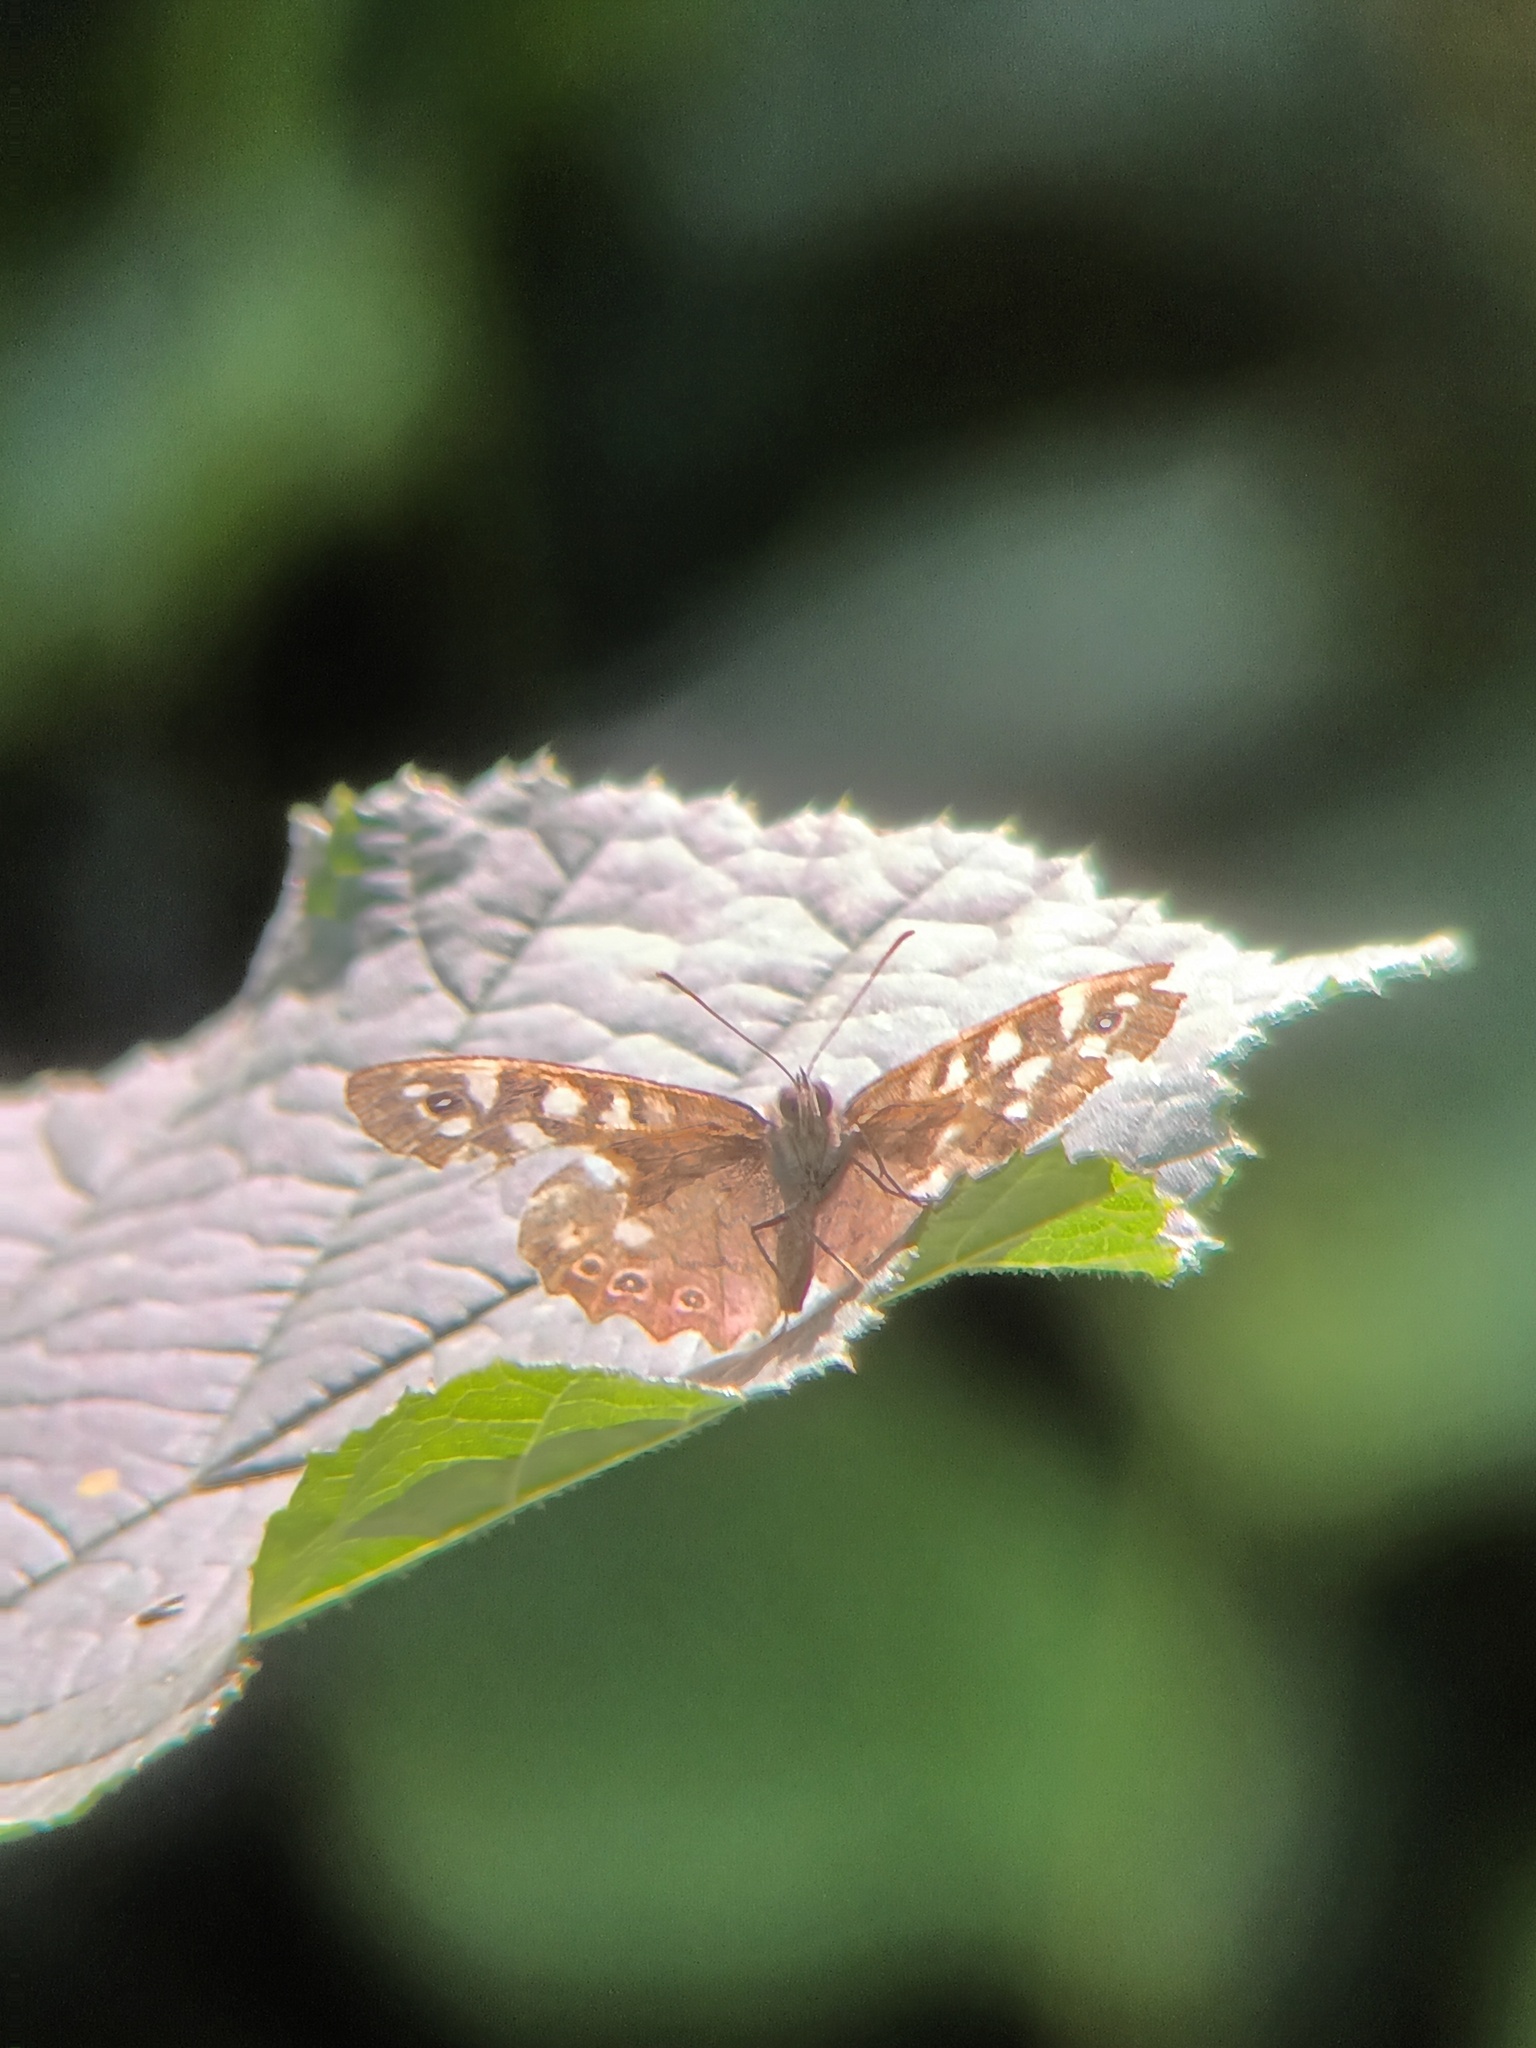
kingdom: Animalia
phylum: Arthropoda
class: Insecta
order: Lepidoptera
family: Nymphalidae
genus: Pararge
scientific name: Pararge aegeria
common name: Speckled wood
